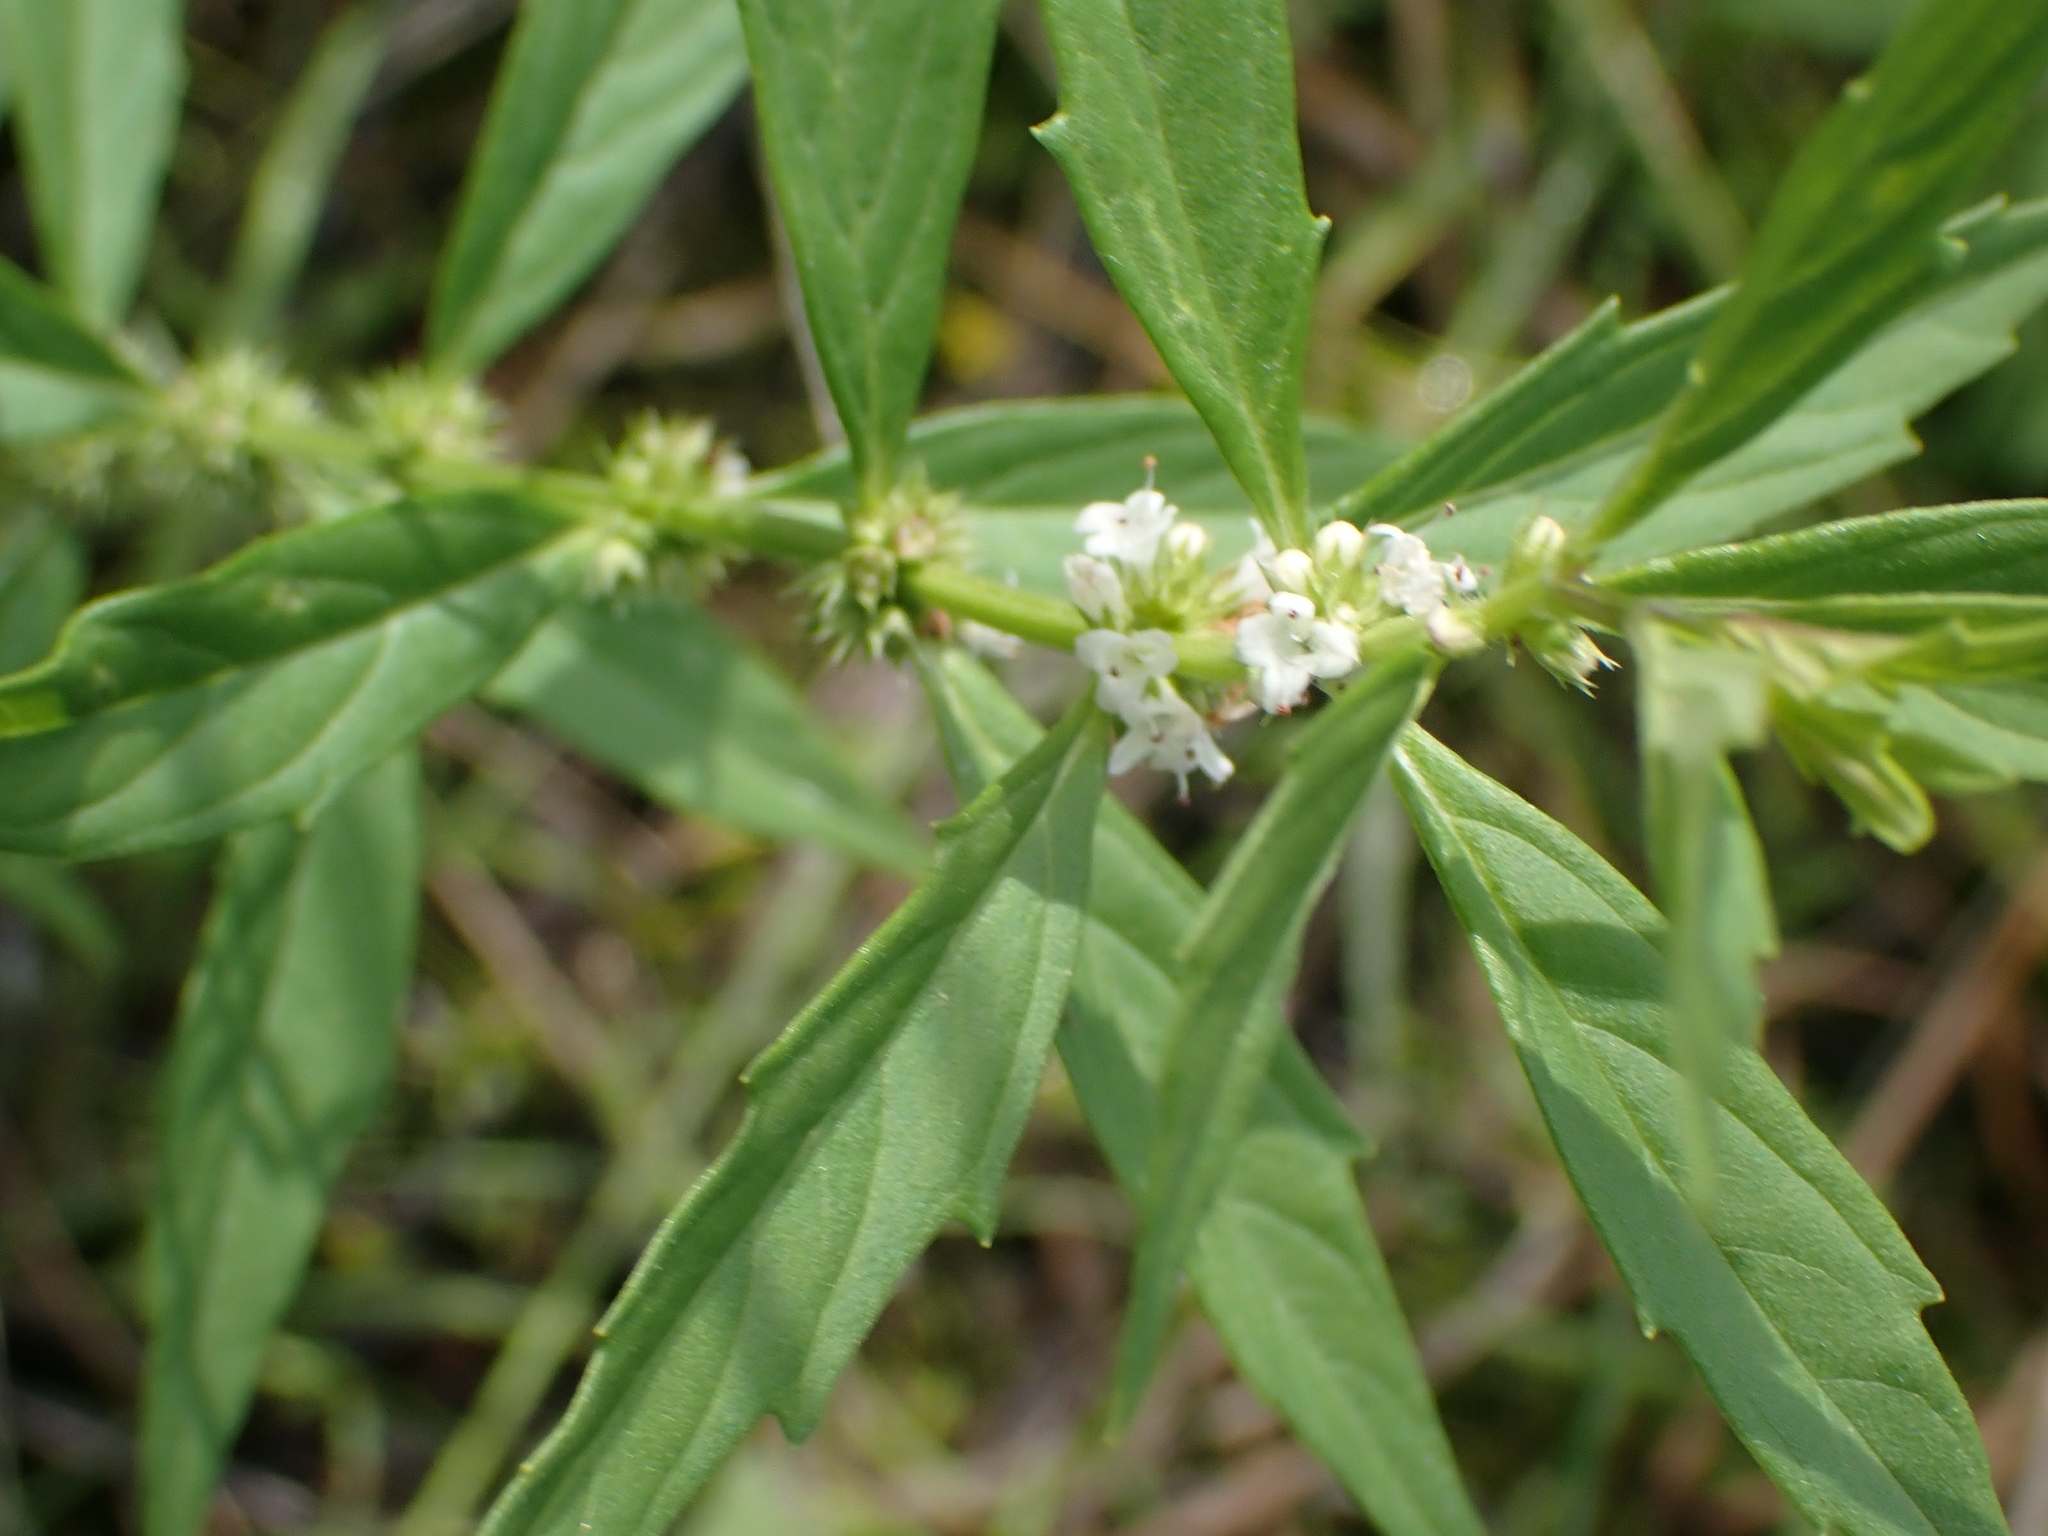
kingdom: Plantae
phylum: Tracheophyta
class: Magnoliopsida
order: Lamiales
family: Lamiaceae
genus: Lycopus
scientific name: Lycopus uniflorus
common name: Northern bugleweed
